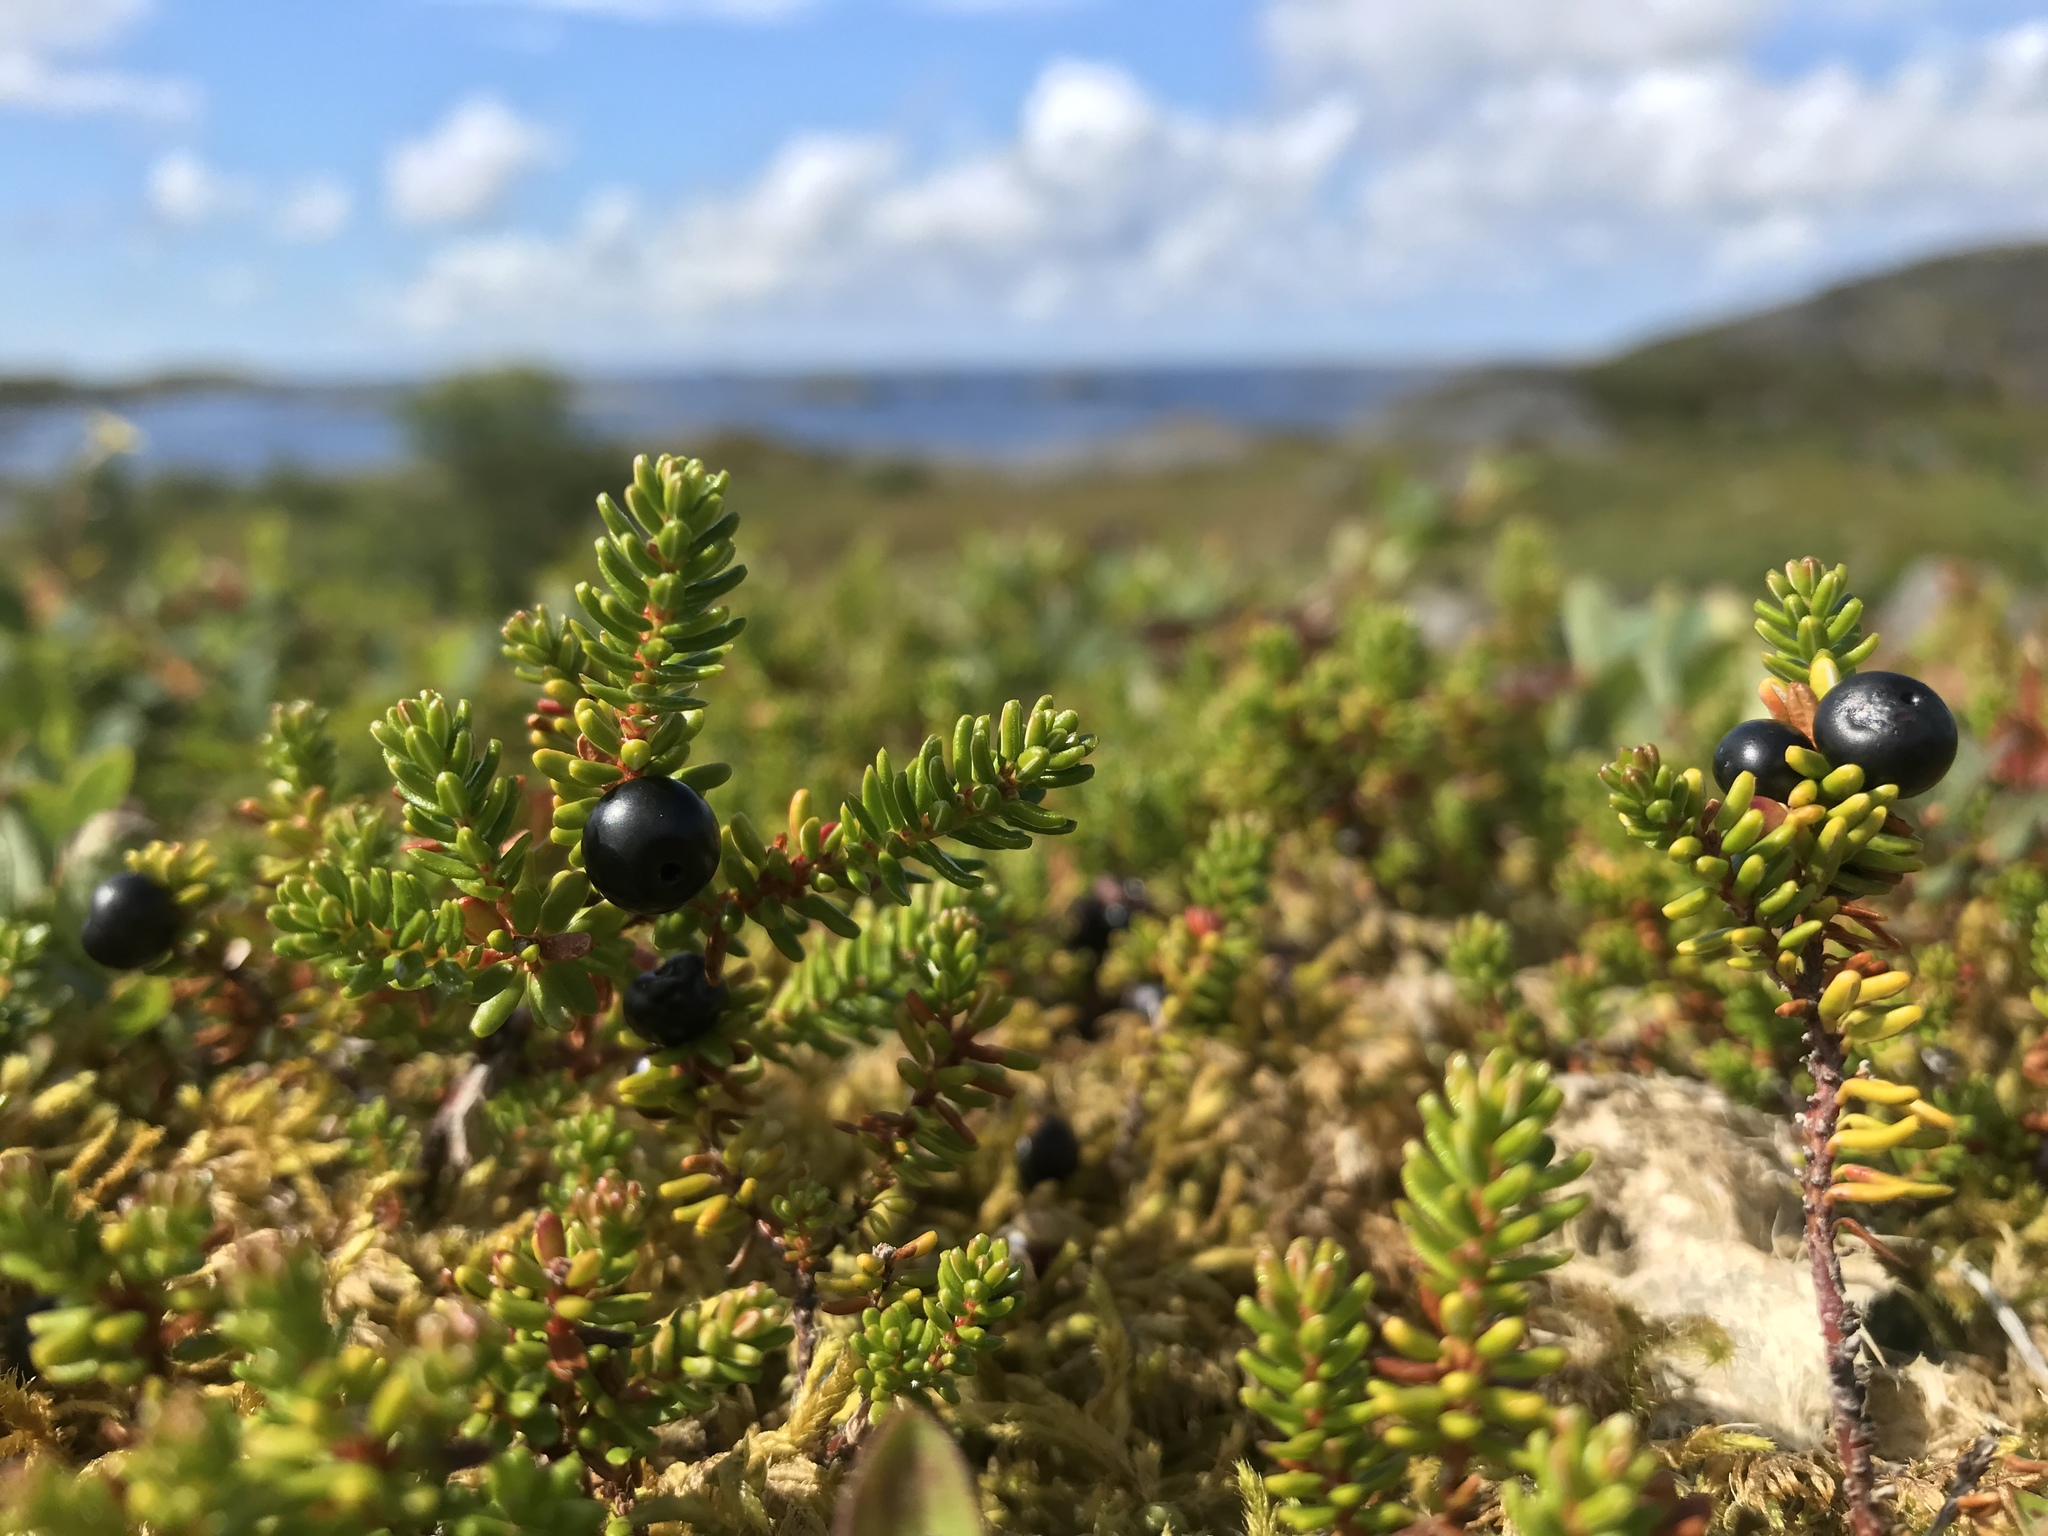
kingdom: Plantae
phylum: Tracheophyta
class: Magnoliopsida
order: Ericales
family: Ericaceae
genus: Empetrum
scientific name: Empetrum nigrum
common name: Black crowberry
